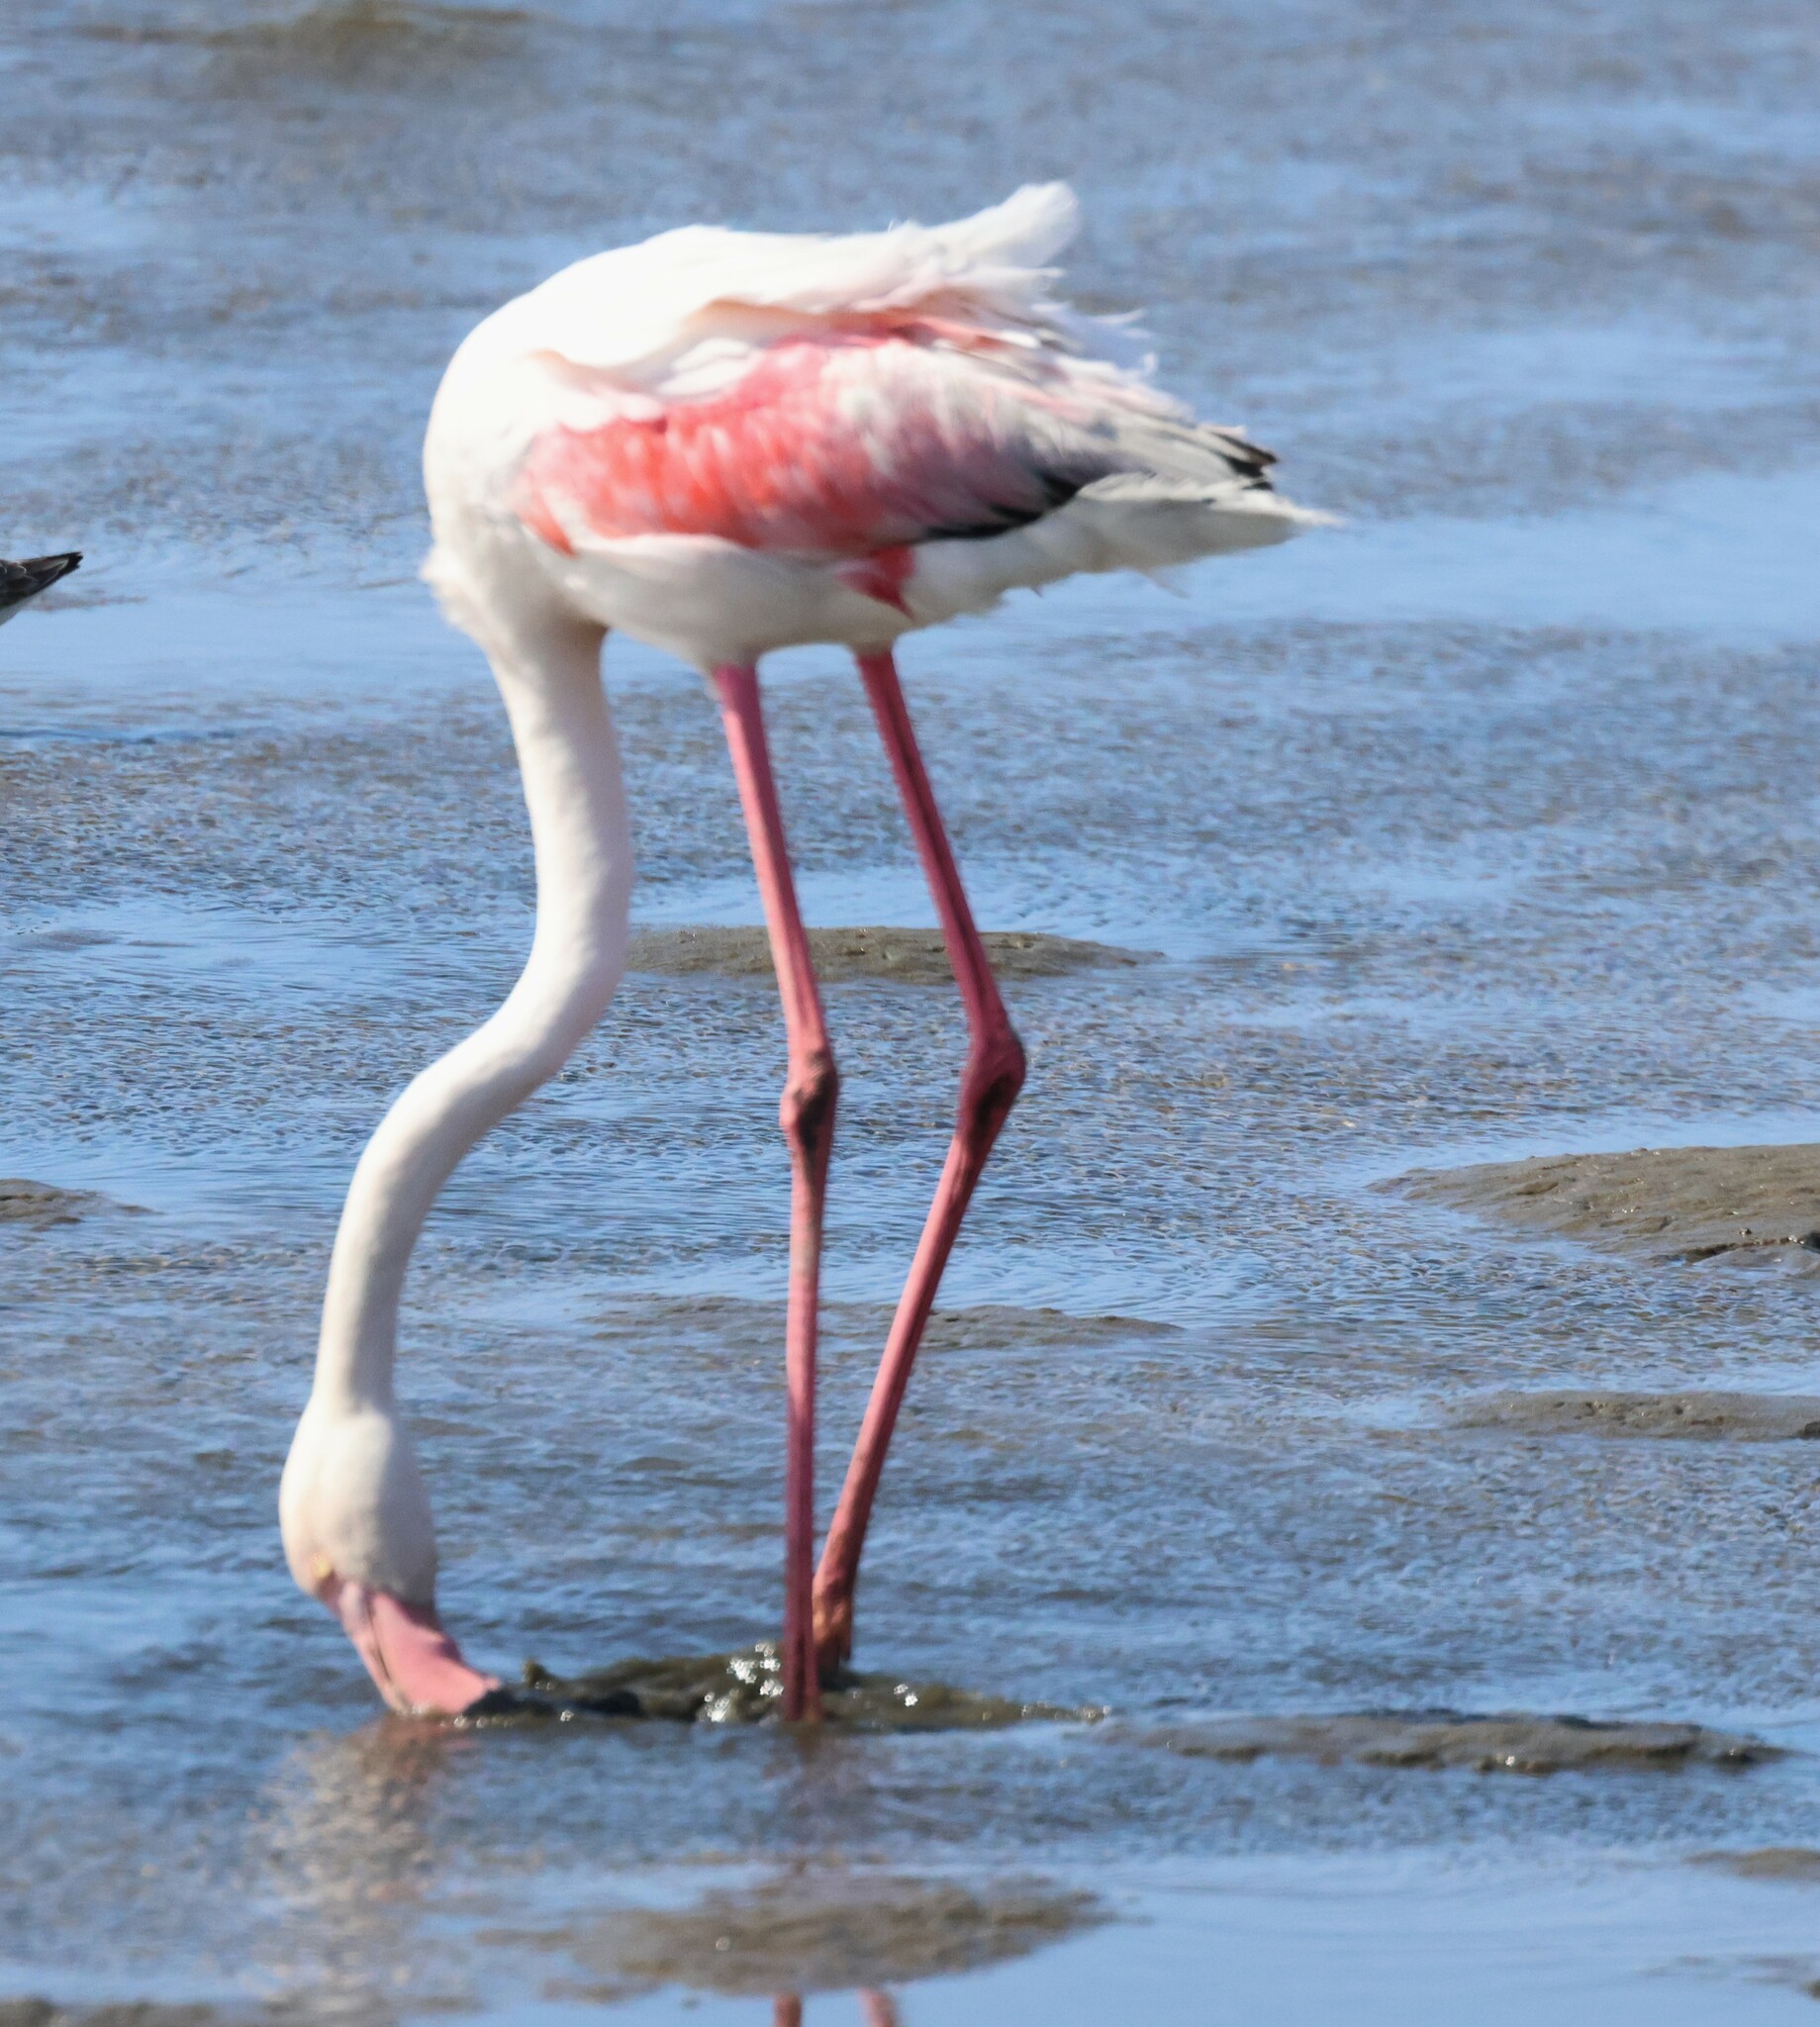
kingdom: Animalia
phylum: Chordata
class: Aves
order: Phoenicopteriformes
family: Phoenicopteridae
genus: Phoenicopterus
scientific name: Phoenicopterus roseus
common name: Greater flamingo
